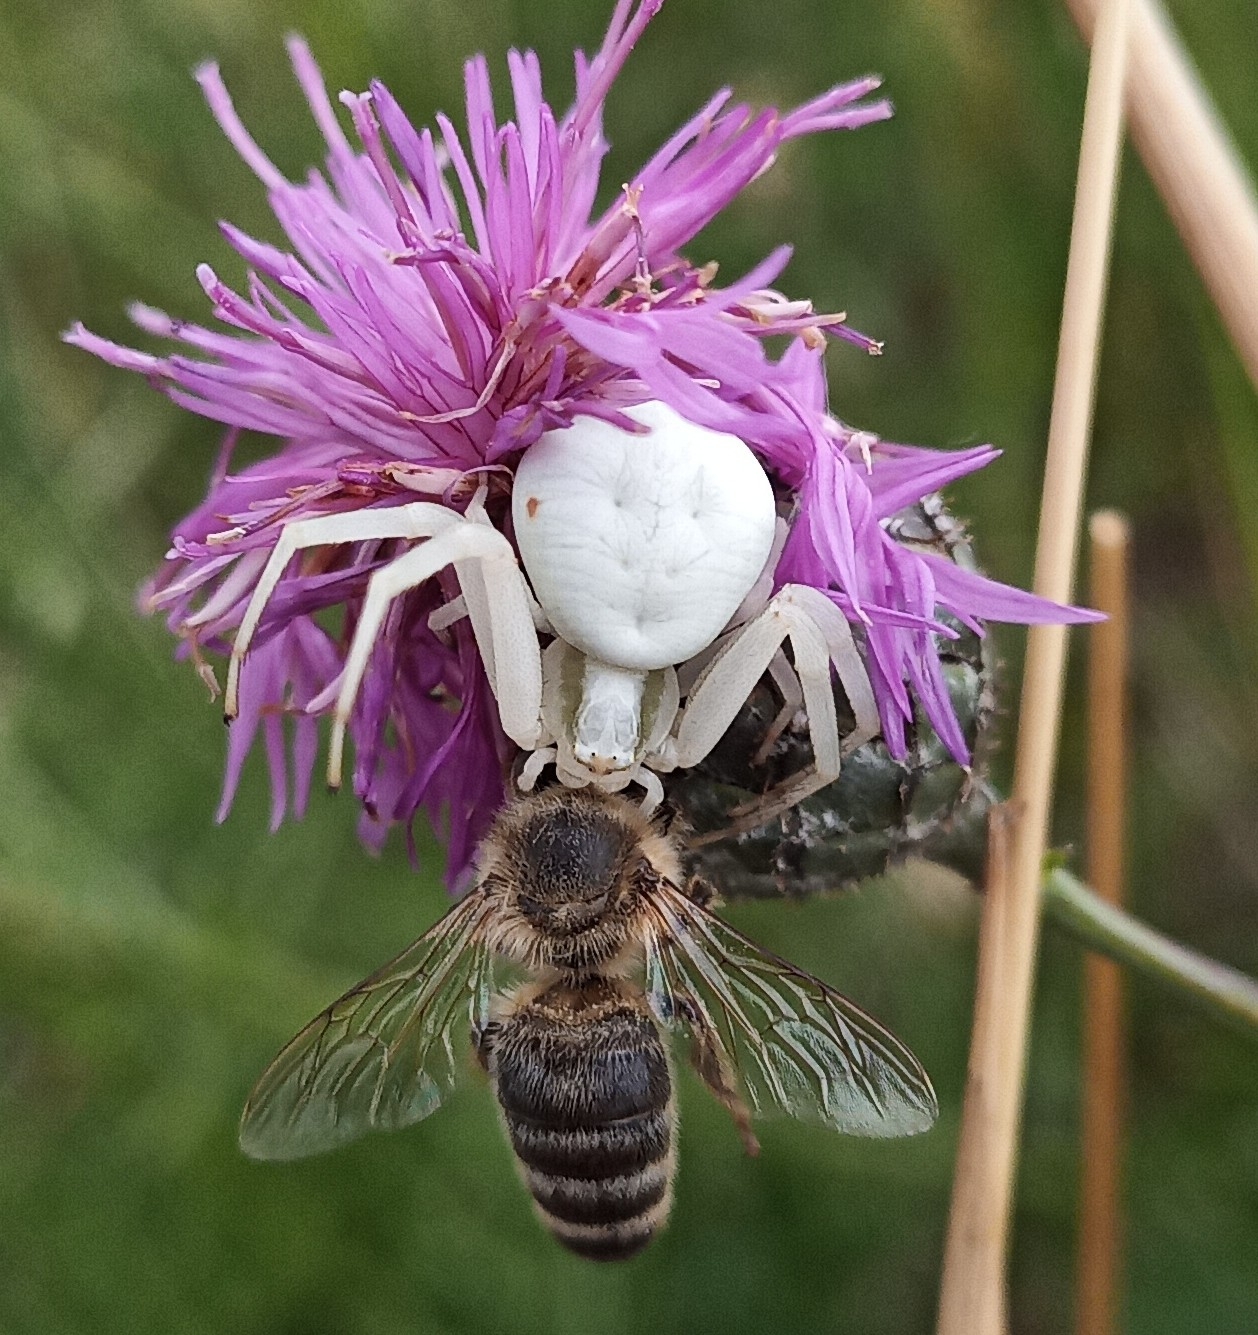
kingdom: Animalia
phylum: Arthropoda
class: Arachnida
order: Araneae
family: Thomisidae
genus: Misumena
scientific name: Misumena vatia
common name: Goldenrod crab spider
